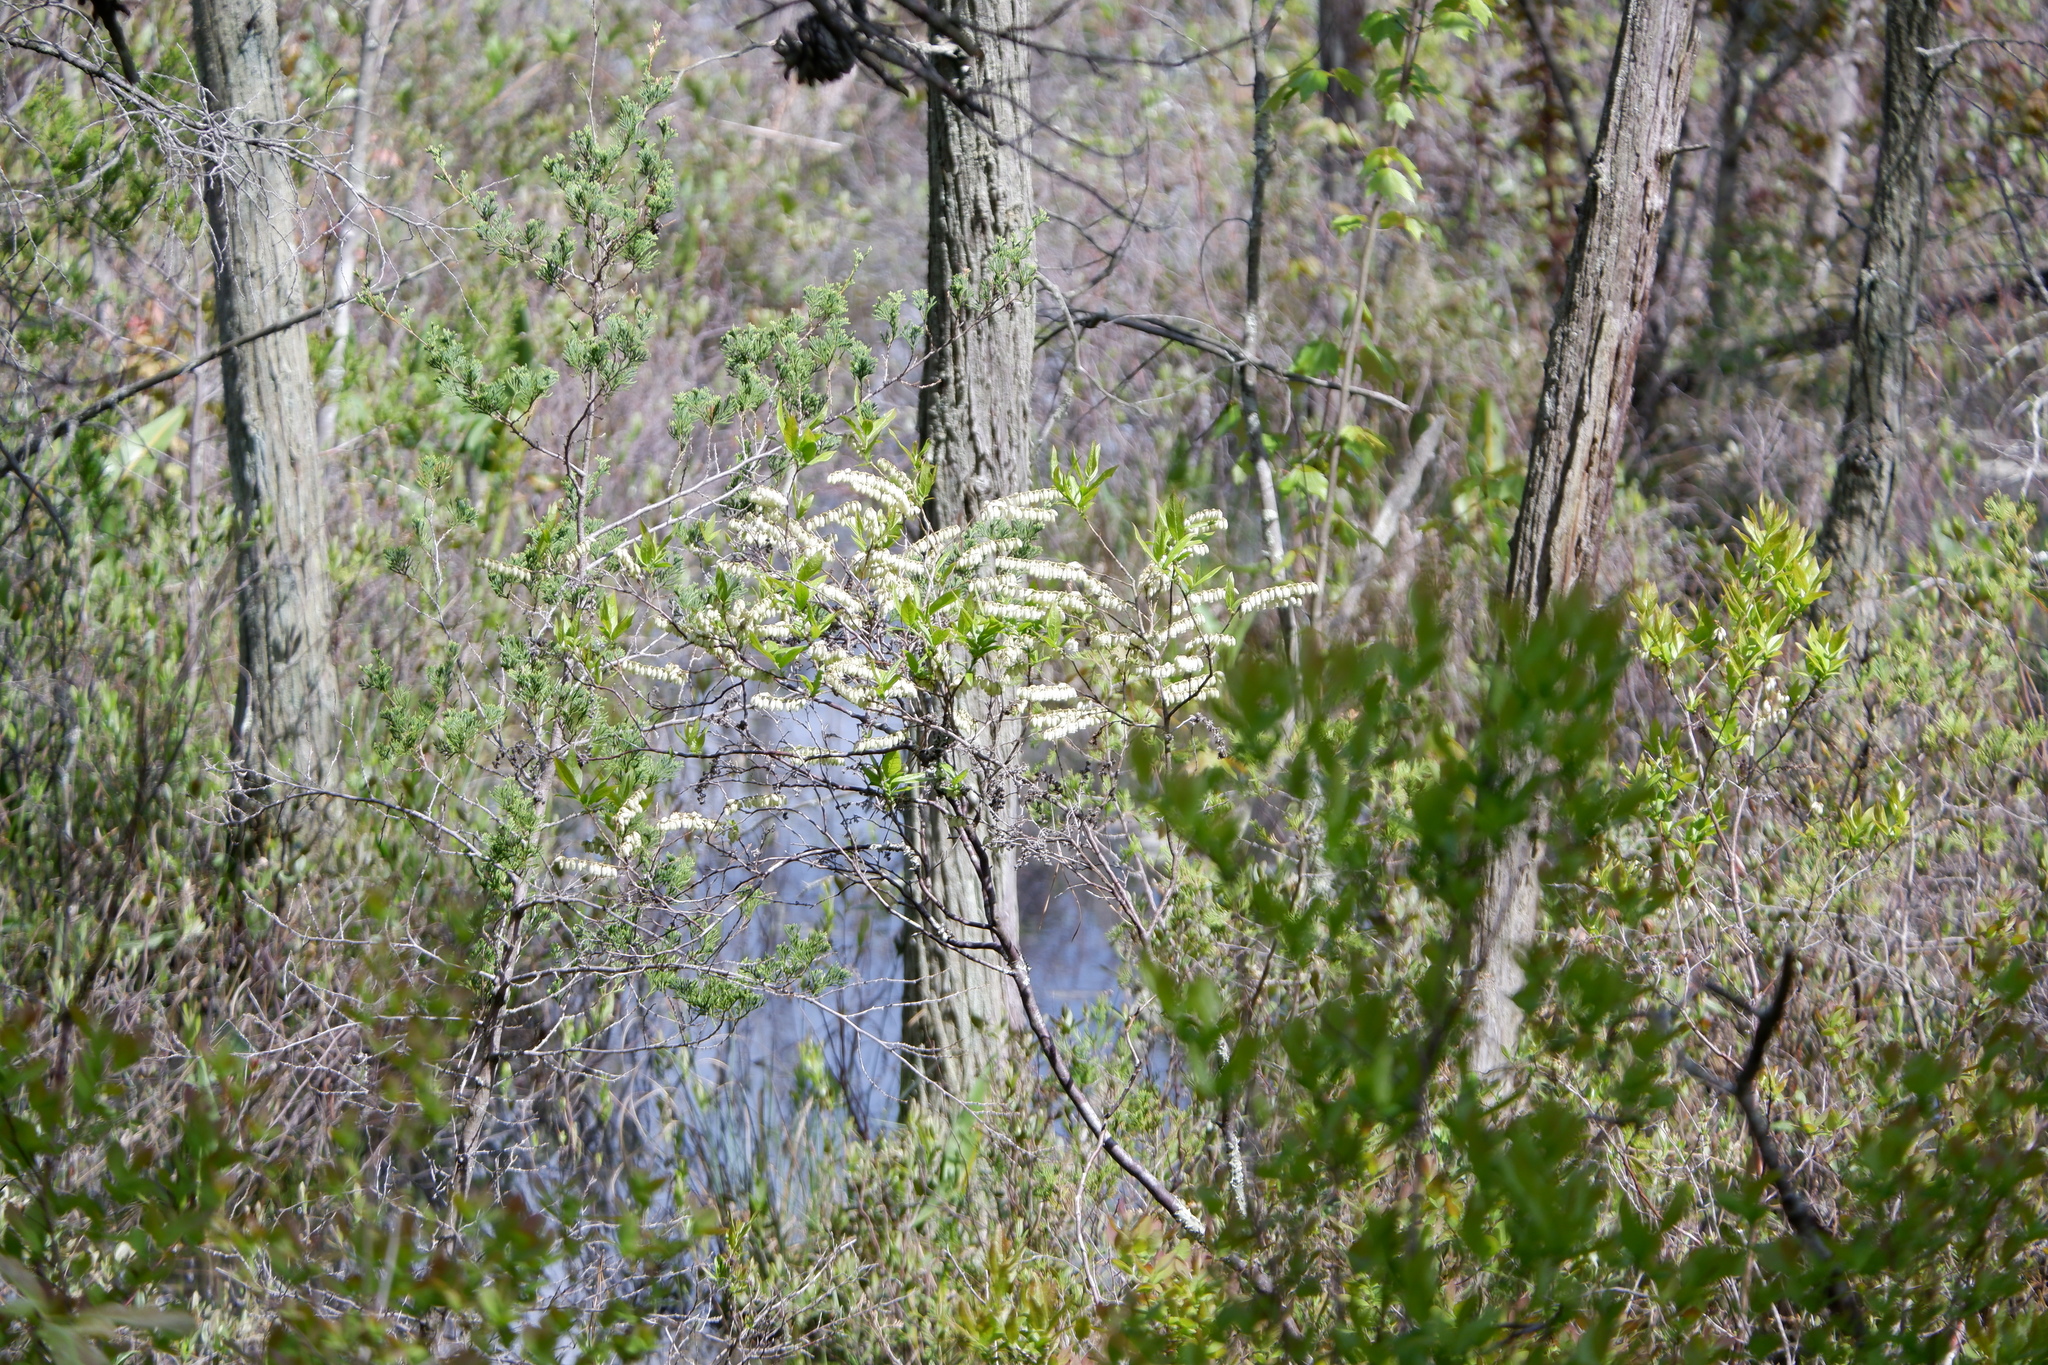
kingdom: Plantae
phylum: Tracheophyta
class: Magnoliopsida
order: Ericales
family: Ericaceae
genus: Eubotrys
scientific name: Eubotrys racemosa
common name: Fetterbush
